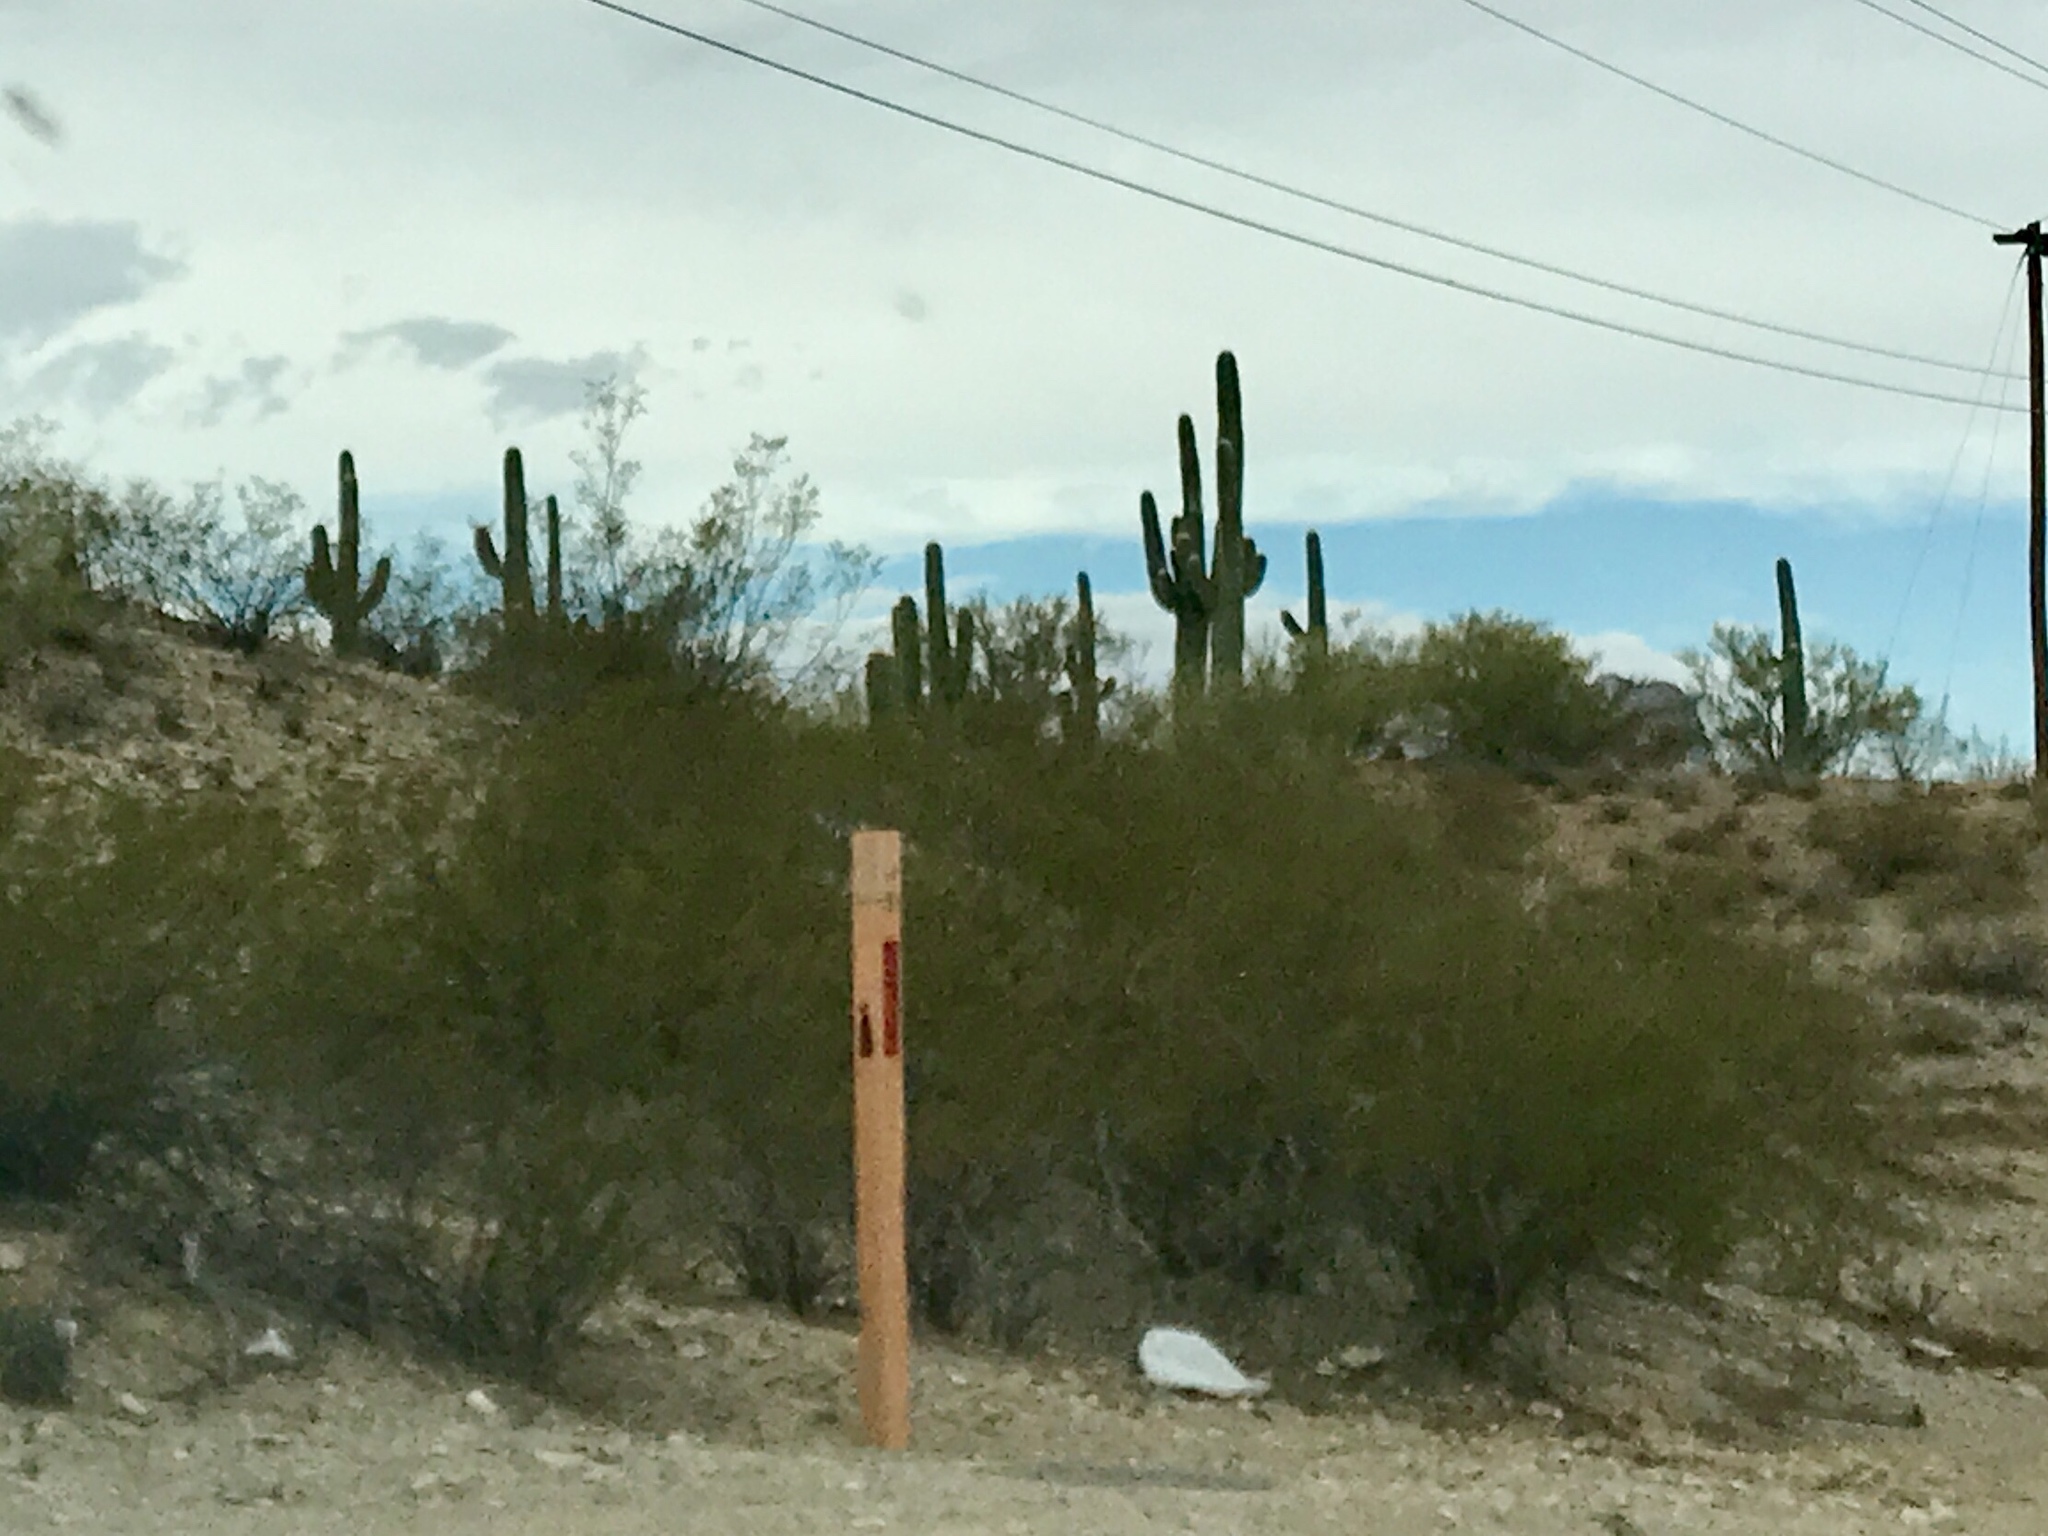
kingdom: Plantae
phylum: Tracheophyta
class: Magnoliopsida
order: Caryophyllales
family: Cactaceae
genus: Carnegiea
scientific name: Carnegiea gigantea
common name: Saguaro
